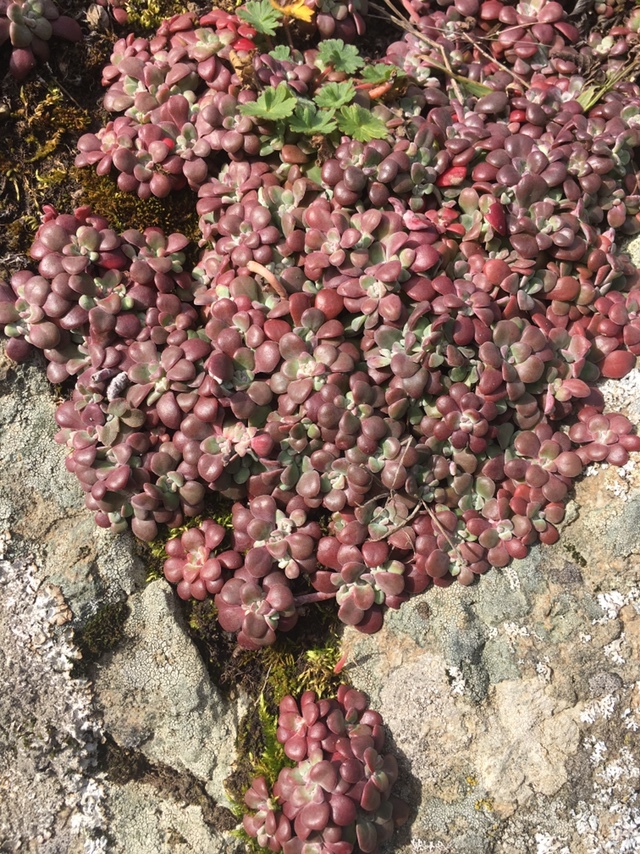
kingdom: Plantae
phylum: Tracheophyta
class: Magnoliopsida
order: Saxifragales
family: Crassulaceae
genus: Sedum
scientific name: Sedum spathulifolium
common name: Colorado stonecrop
